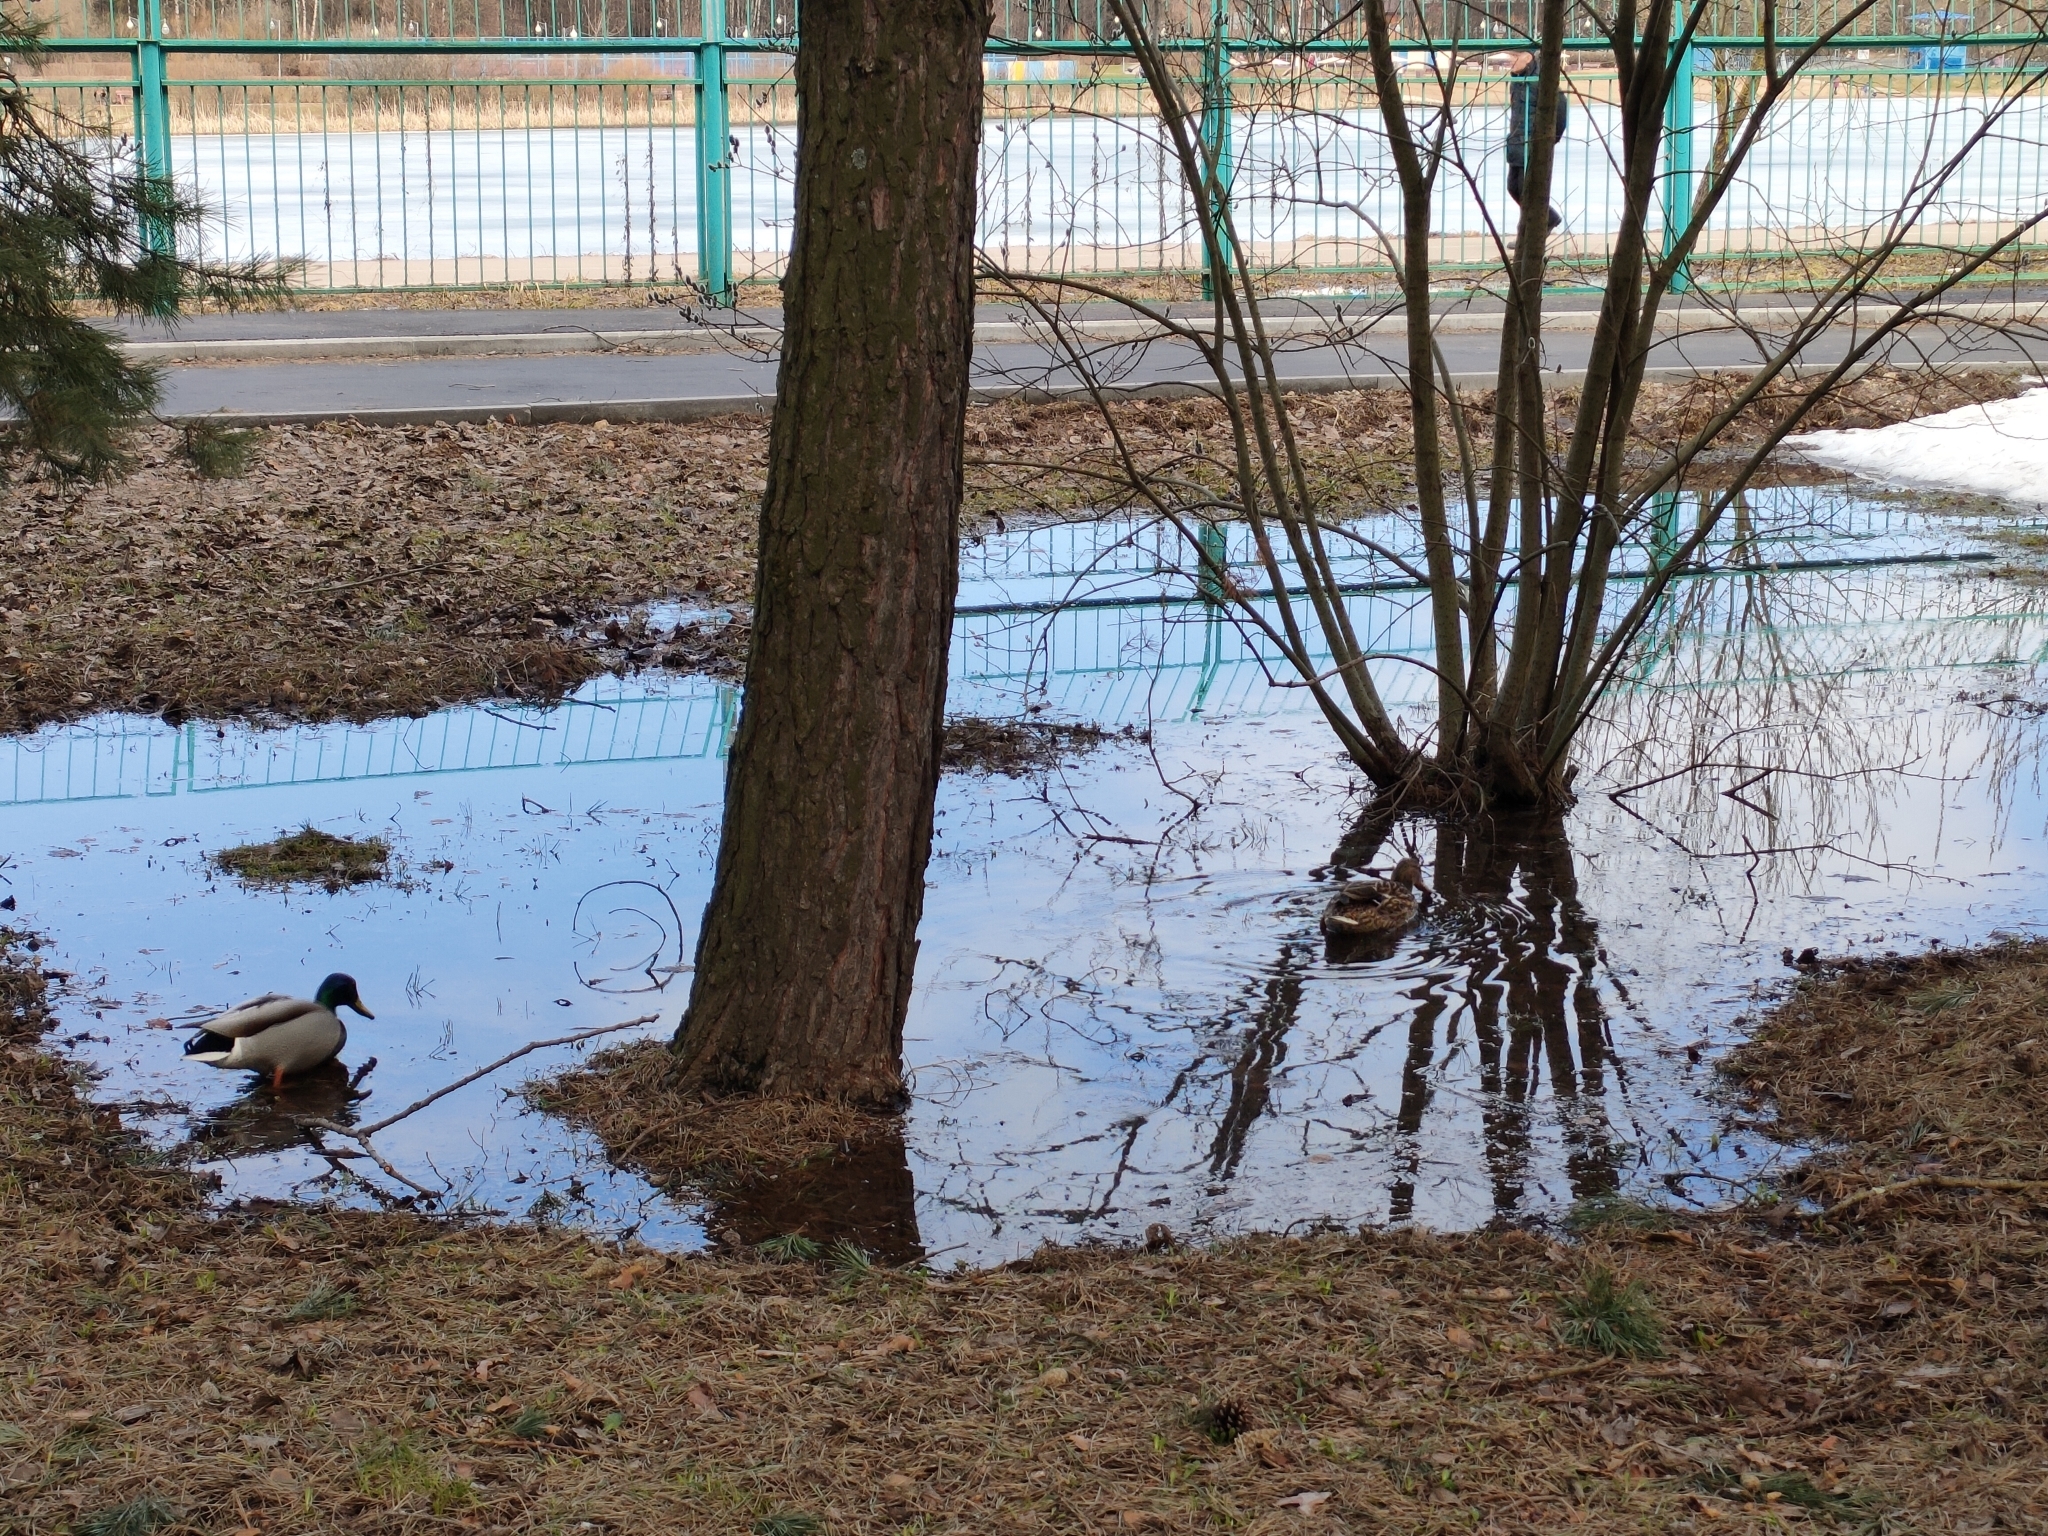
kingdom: Animalia
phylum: Chordata
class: Aves
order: Anseriformes
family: Anatidae
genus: Anas
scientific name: Anas platyrhynchos
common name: Mallard
